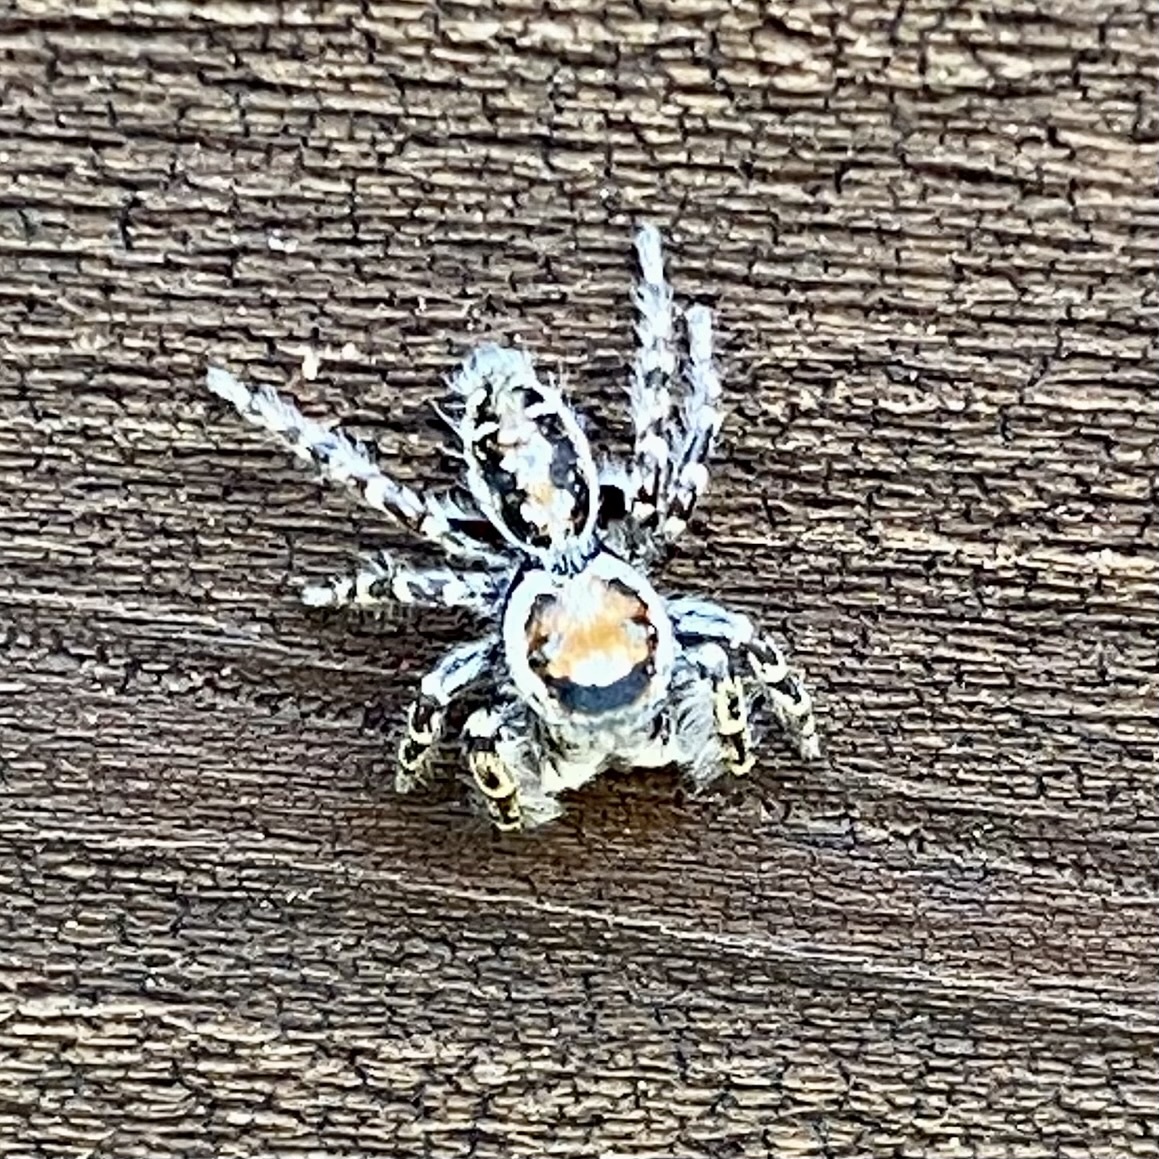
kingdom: Animalia
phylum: Arthropoda
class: Arachnida
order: Araneae
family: Salticidae
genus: Phidippus
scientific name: Phidippus comatus
